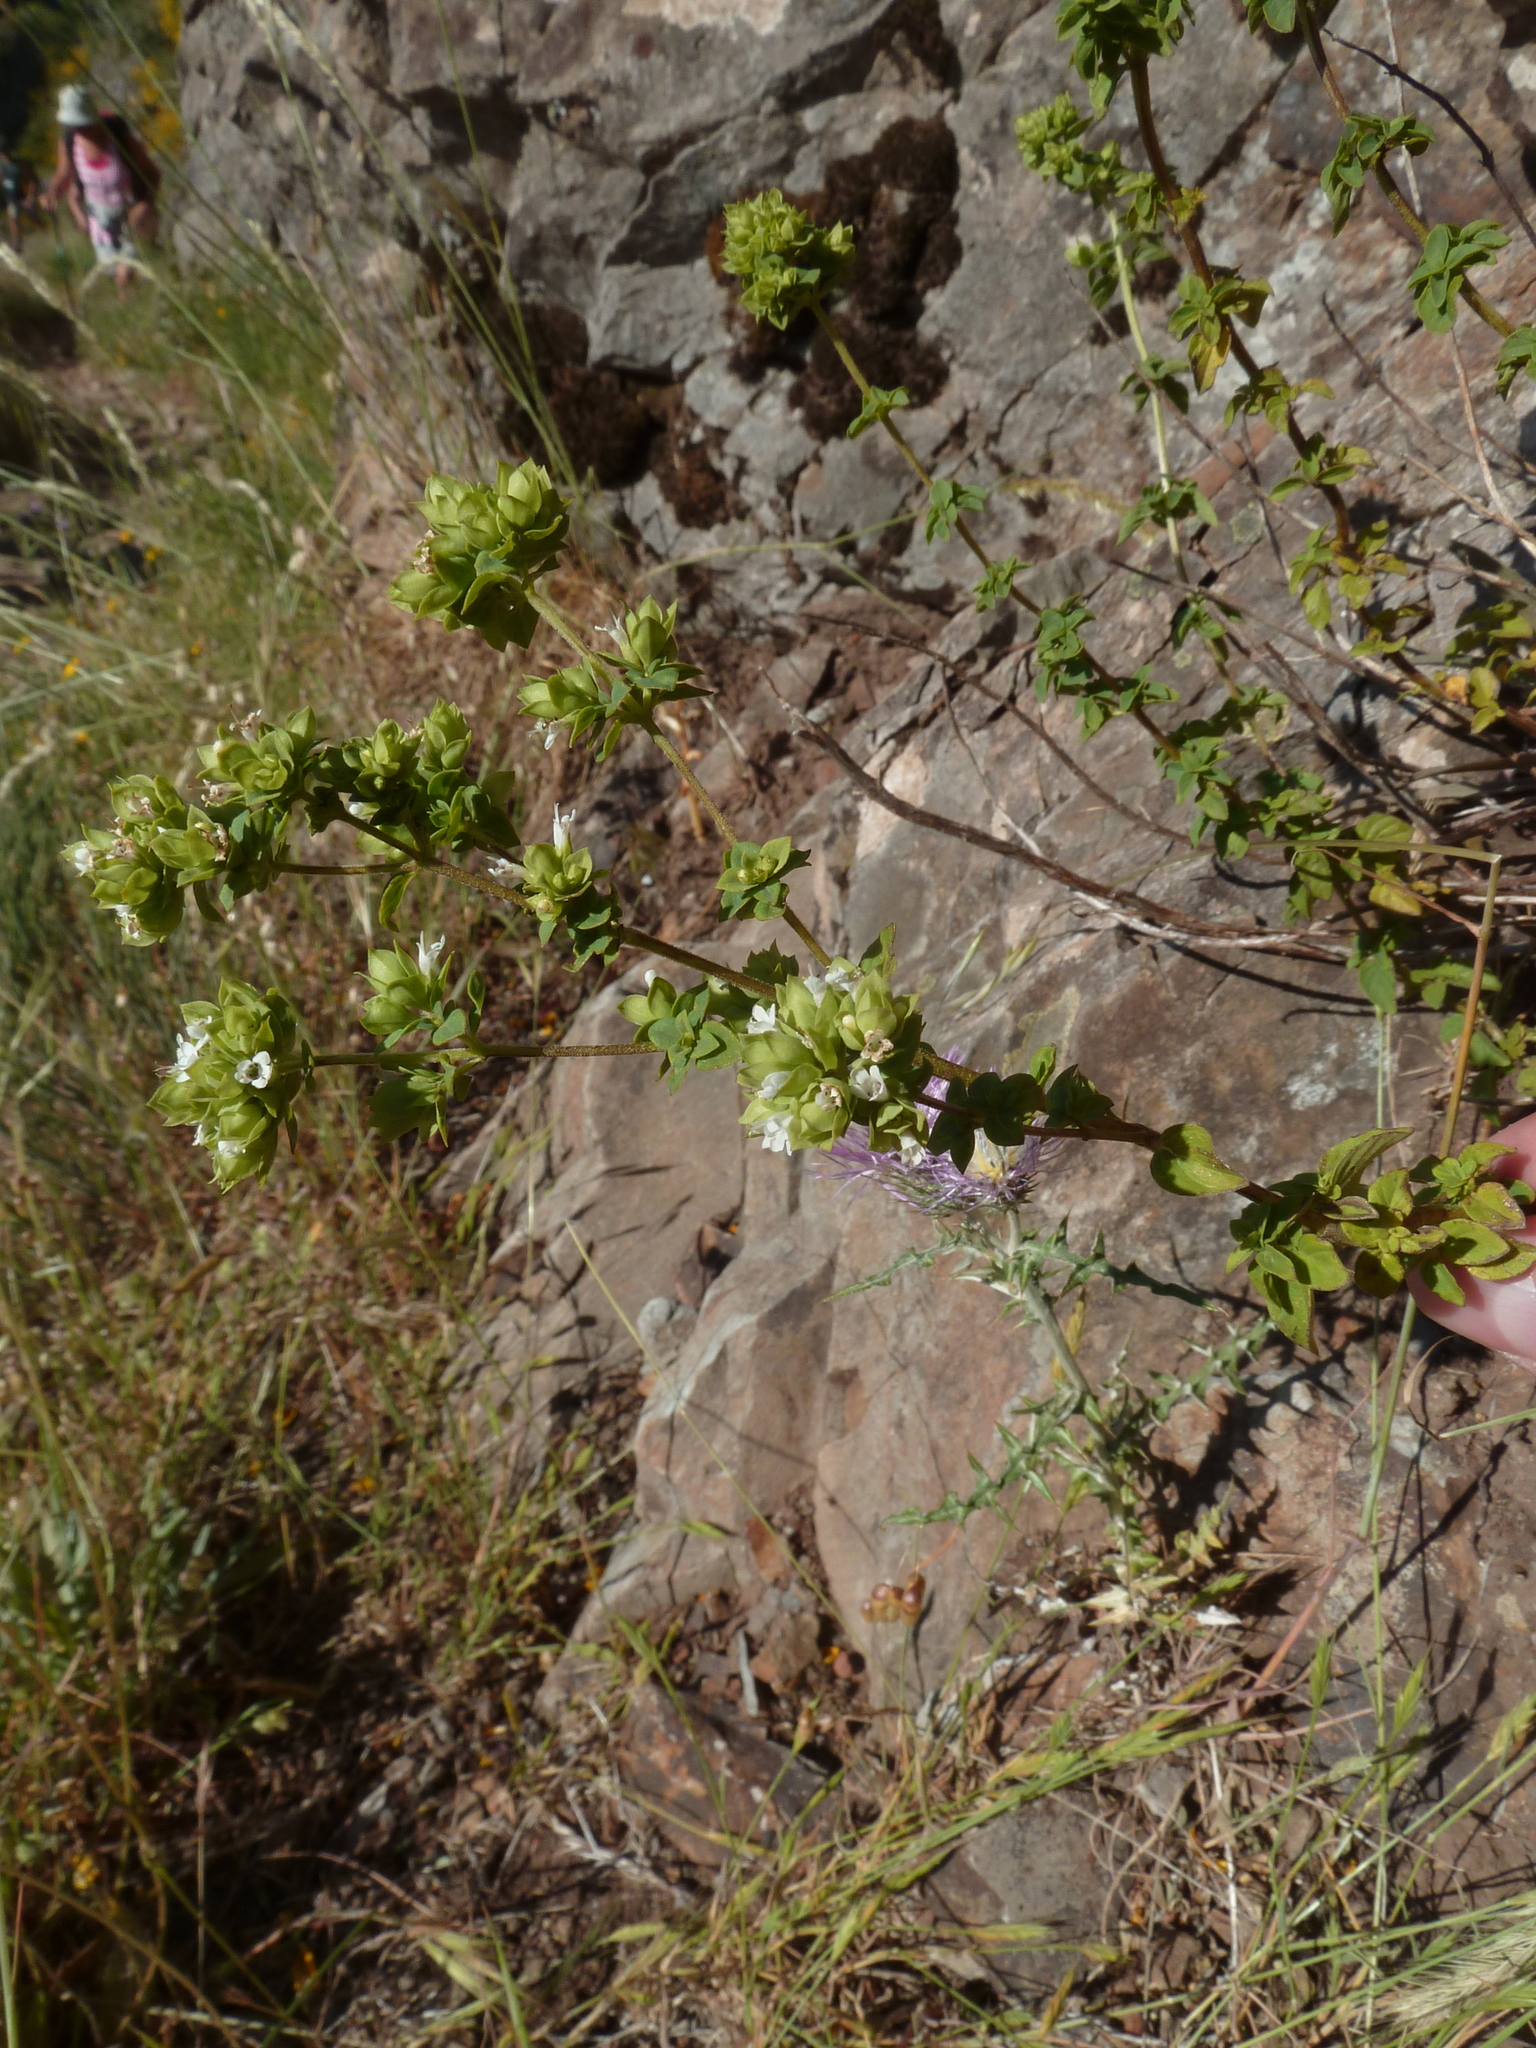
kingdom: Plantae
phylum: Tracheophyta
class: Magnoliopsida
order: Lamiales
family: Lamiaceae
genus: Origanum
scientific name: Origanum vulgare
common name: Wild marjoram
